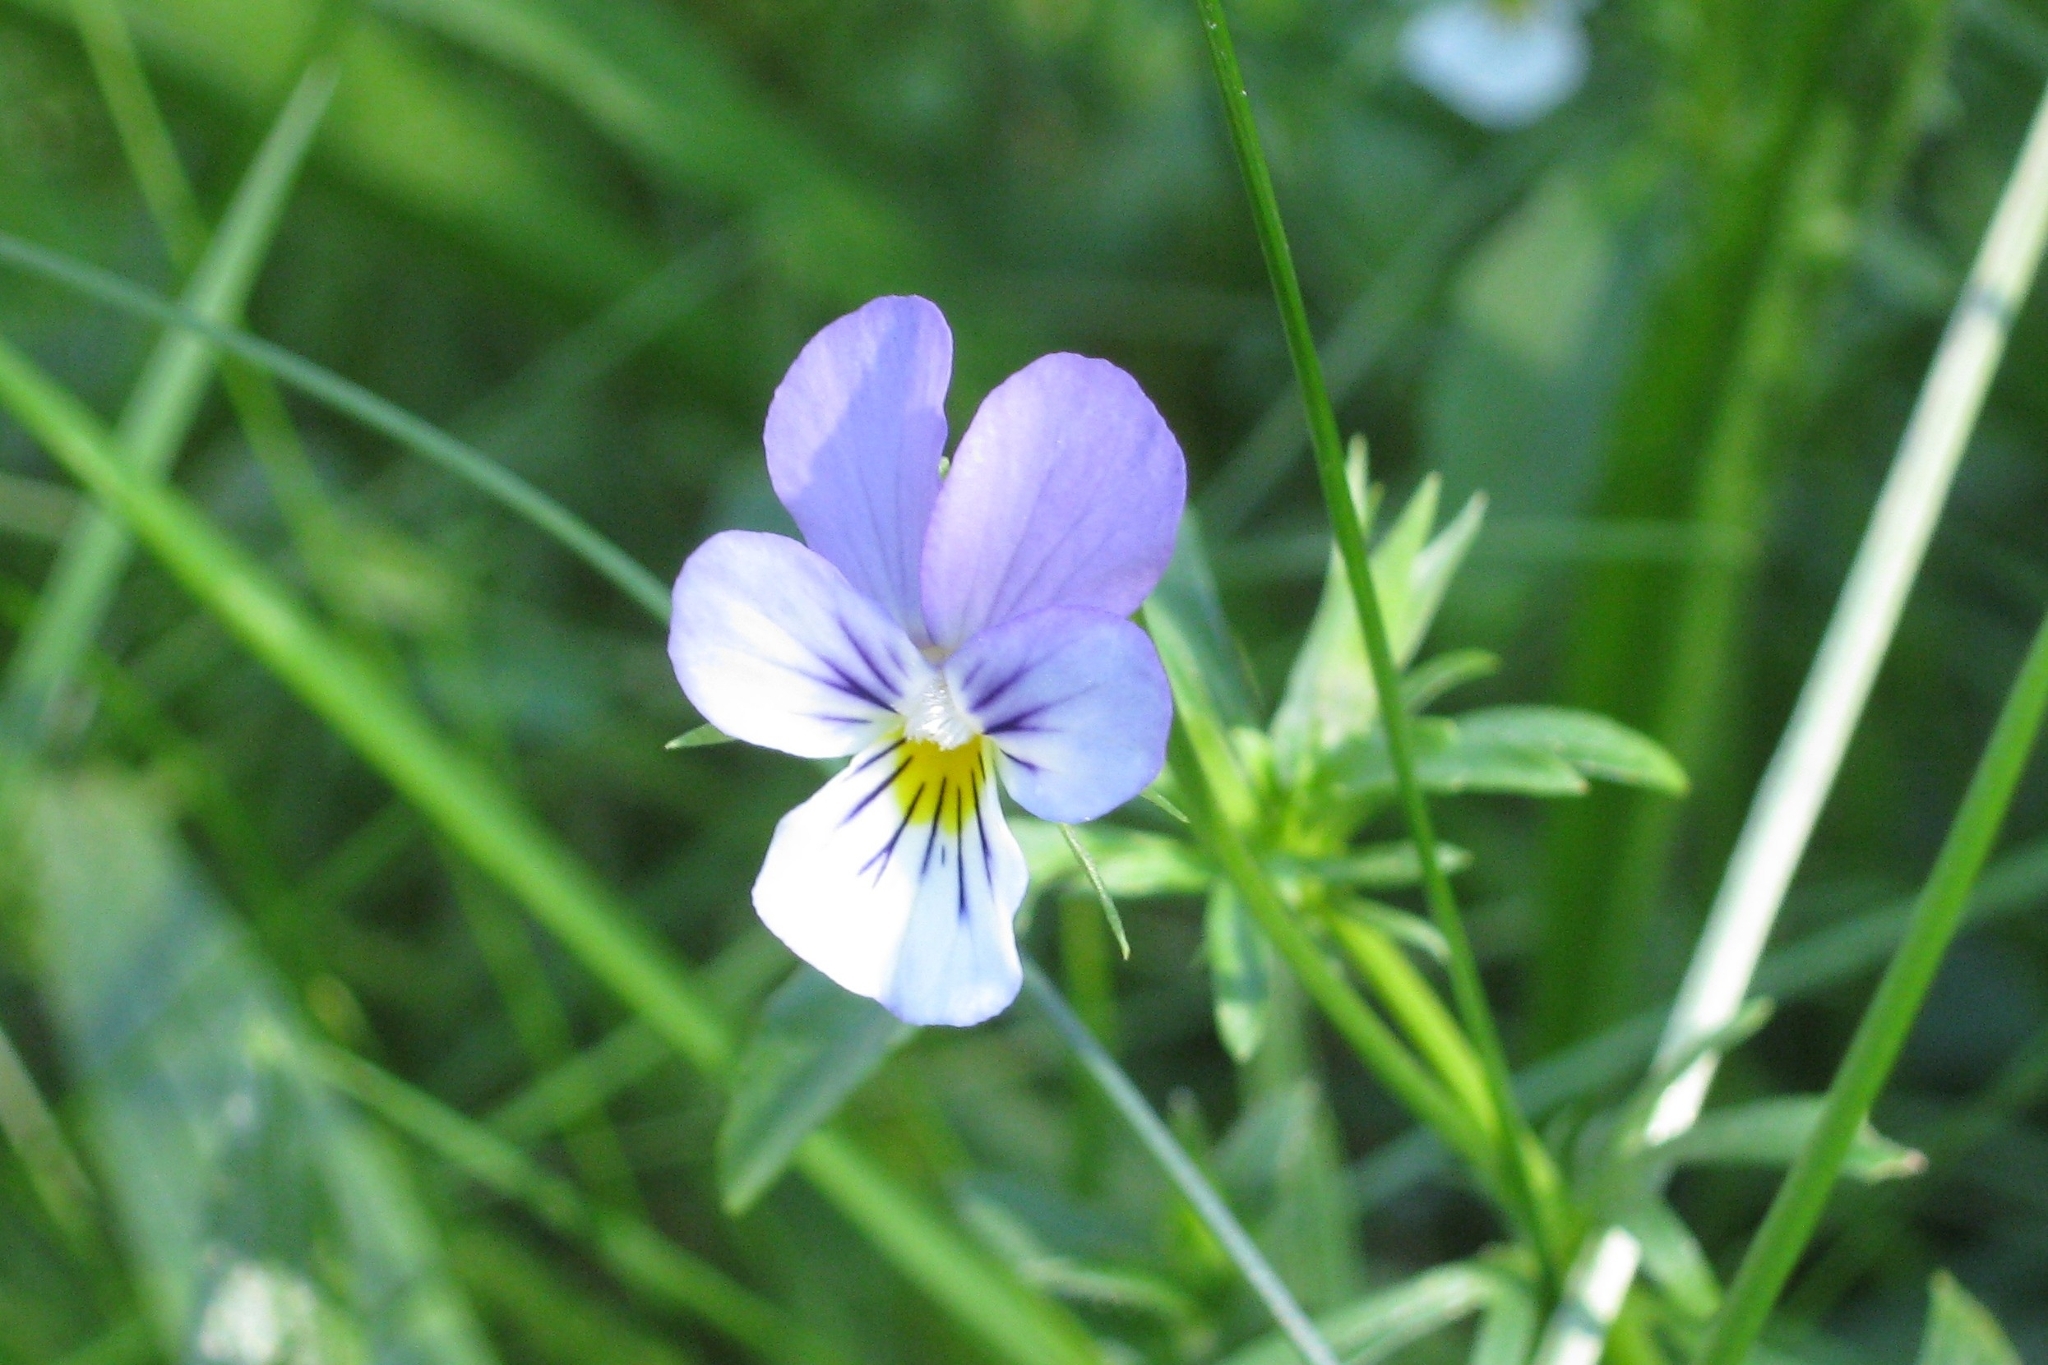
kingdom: Plantae
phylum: Tracheophyta
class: Magnoliopsida
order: Malpighiales
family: Violaceae
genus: Viola
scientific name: Viola tricolor
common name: Pansy
